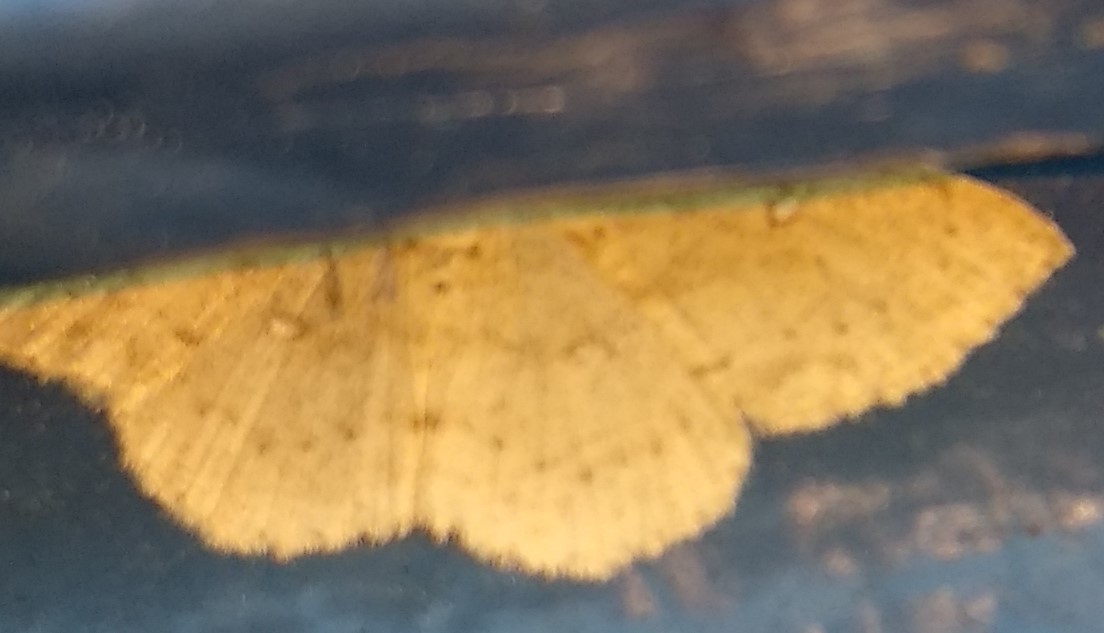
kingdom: Animalia
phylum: Arthropoda
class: Insecta
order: Lepidoptera
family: Geometridae
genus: Cyclophora
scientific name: Cyclophora pendulinaria
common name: Sweet fern geometer
